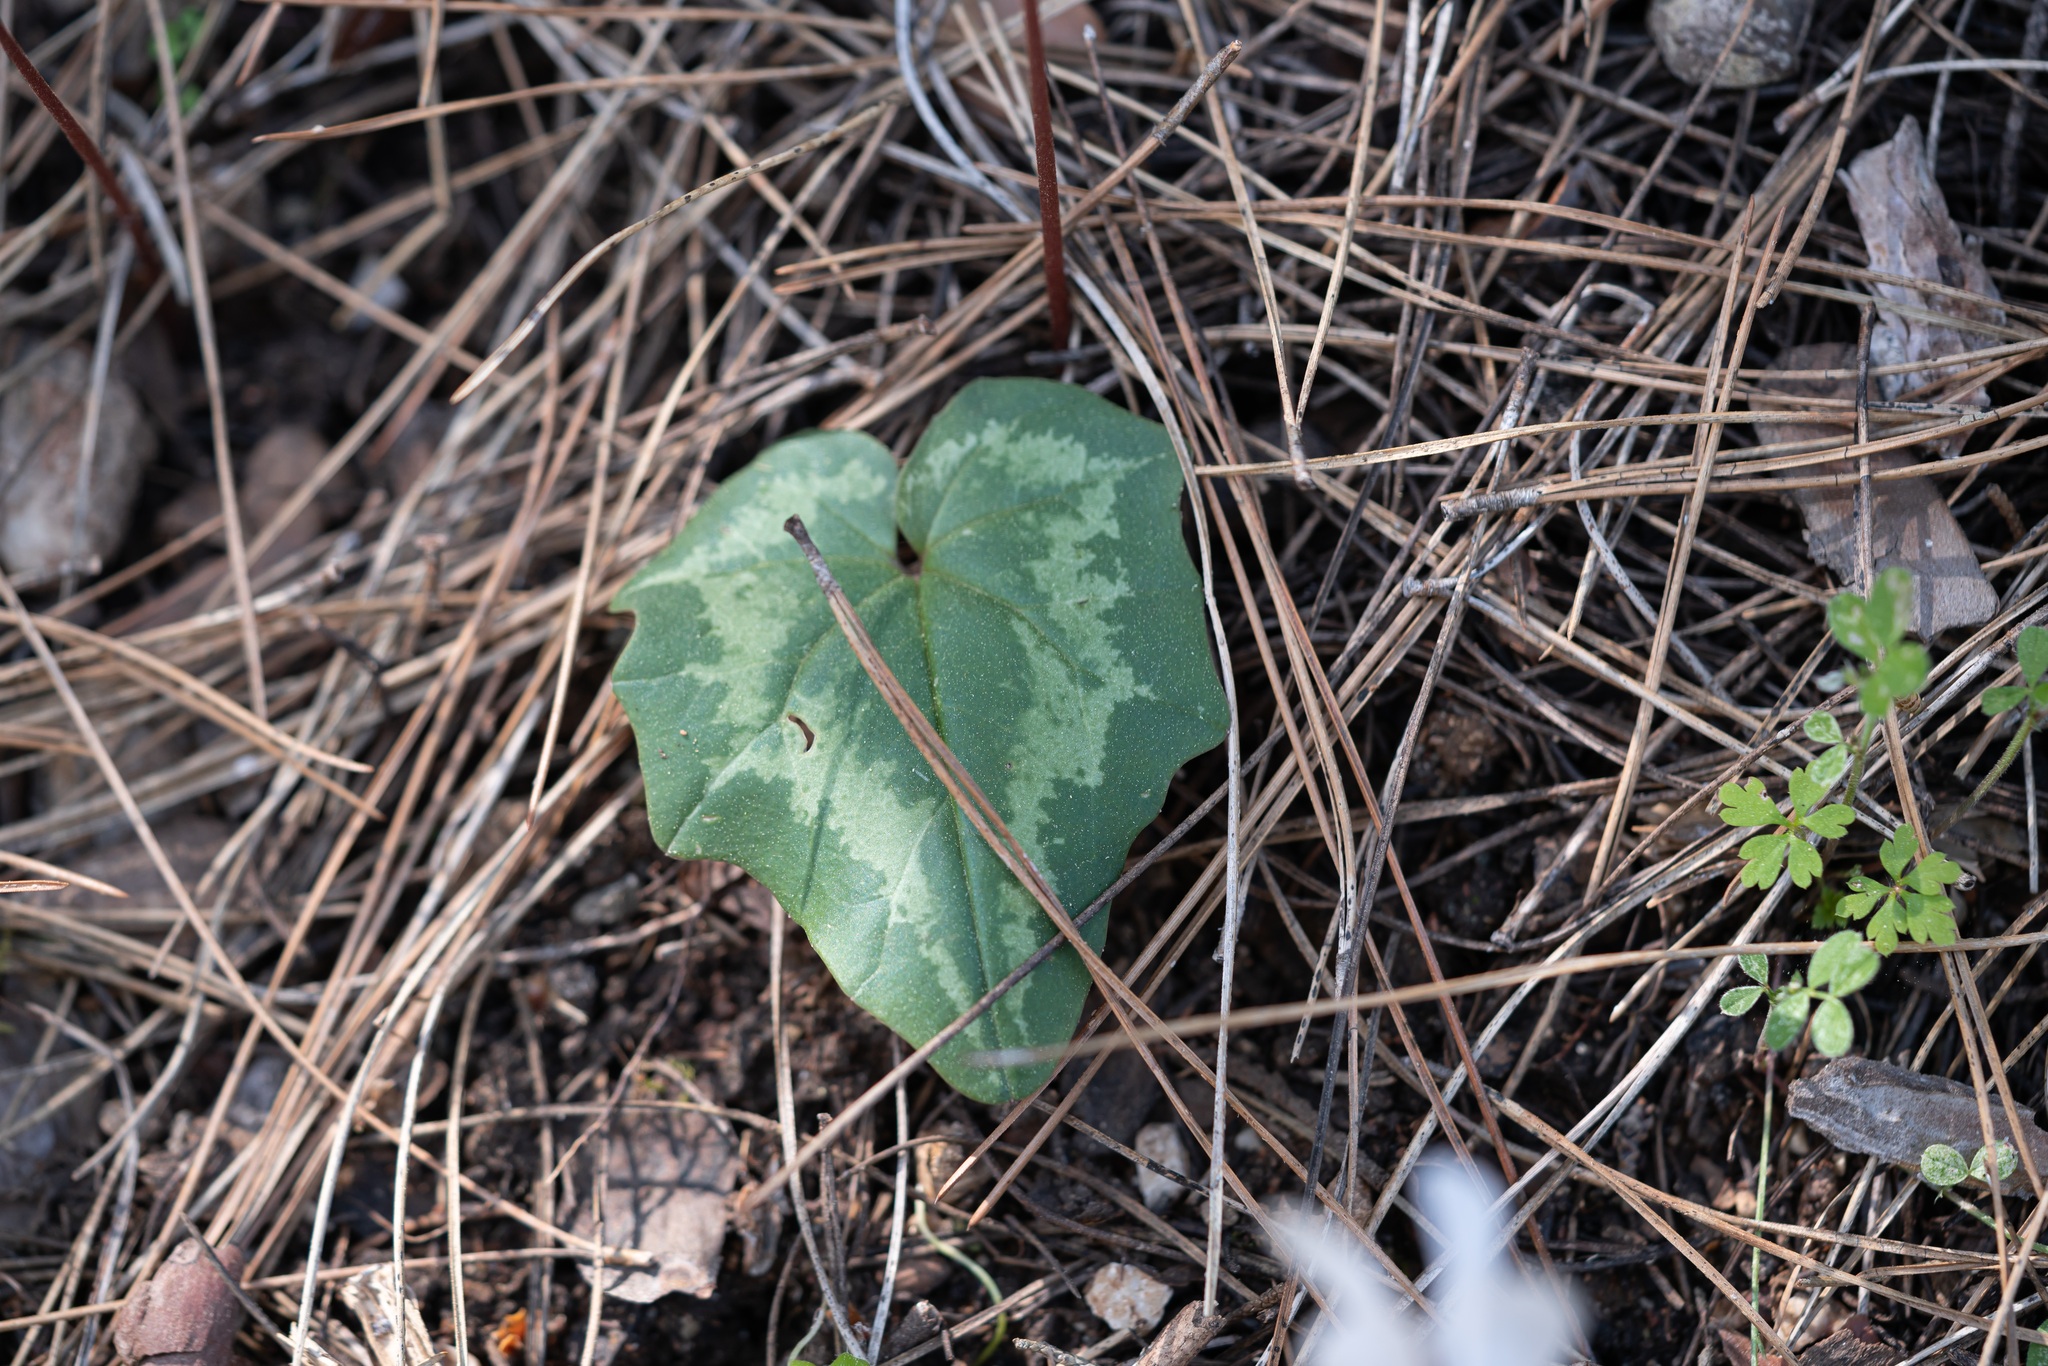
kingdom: Plantae
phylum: Tracheophyta
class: Magnoliopsida
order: Ericales
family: Primulaceae
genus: Cyclamen
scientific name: Cyclamen repandum
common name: Spring sowbread
